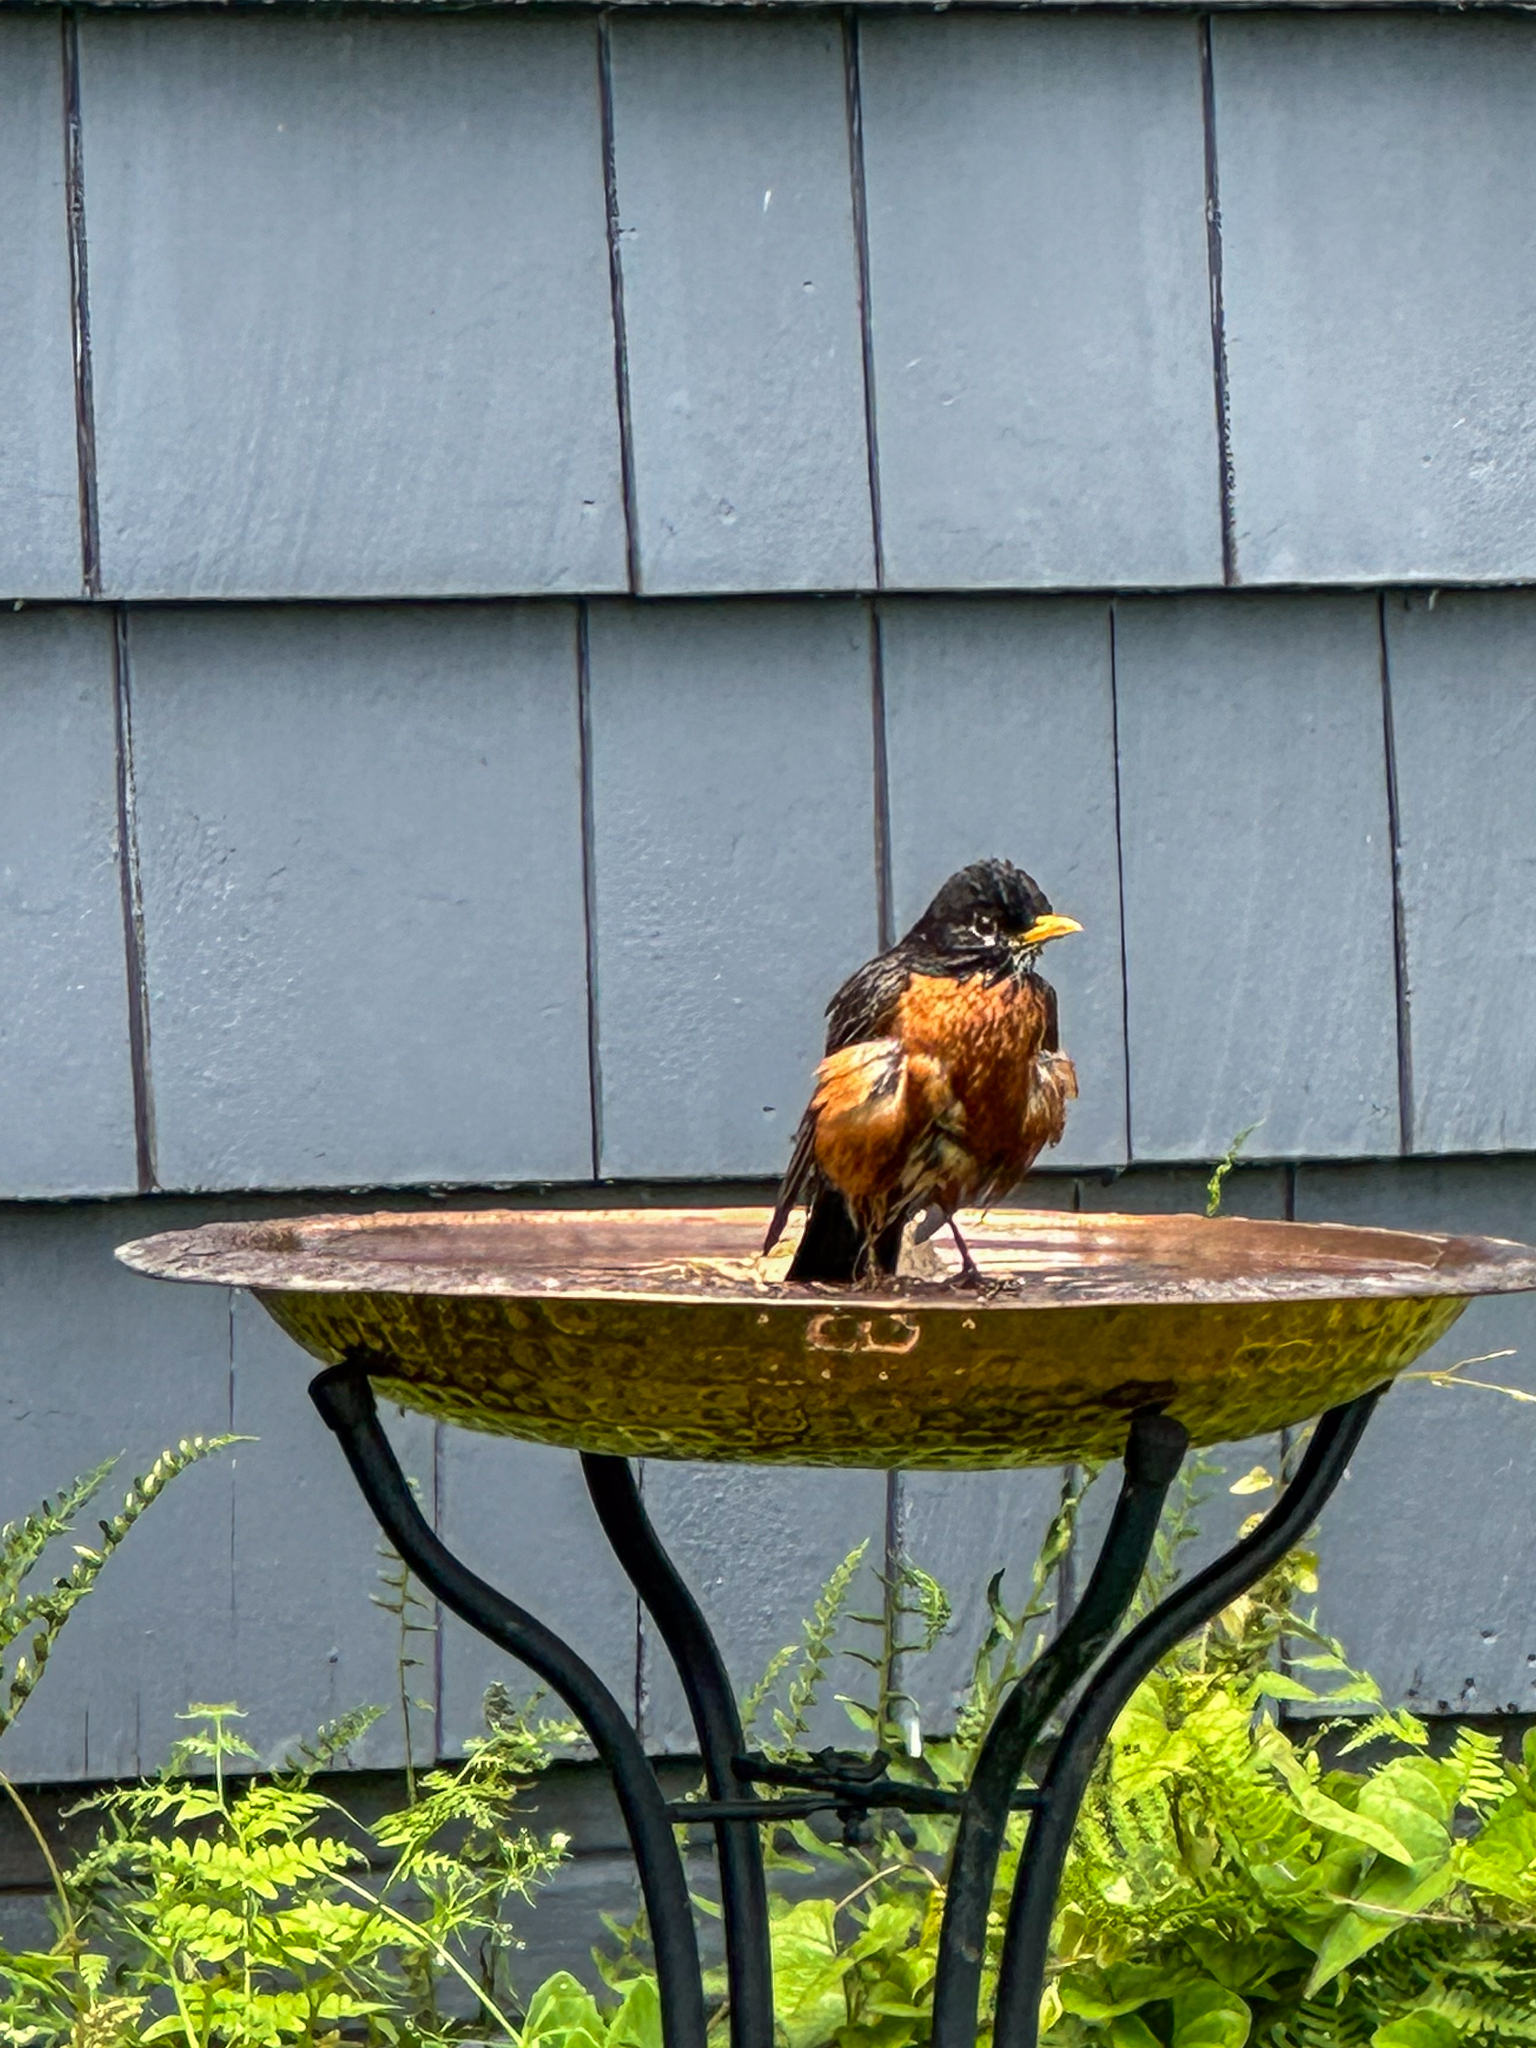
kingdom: Animalia
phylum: Chordata
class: Aves
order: Passeriformes
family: Turdidae
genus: Turdus
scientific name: Turdus migratorius
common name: American robin
